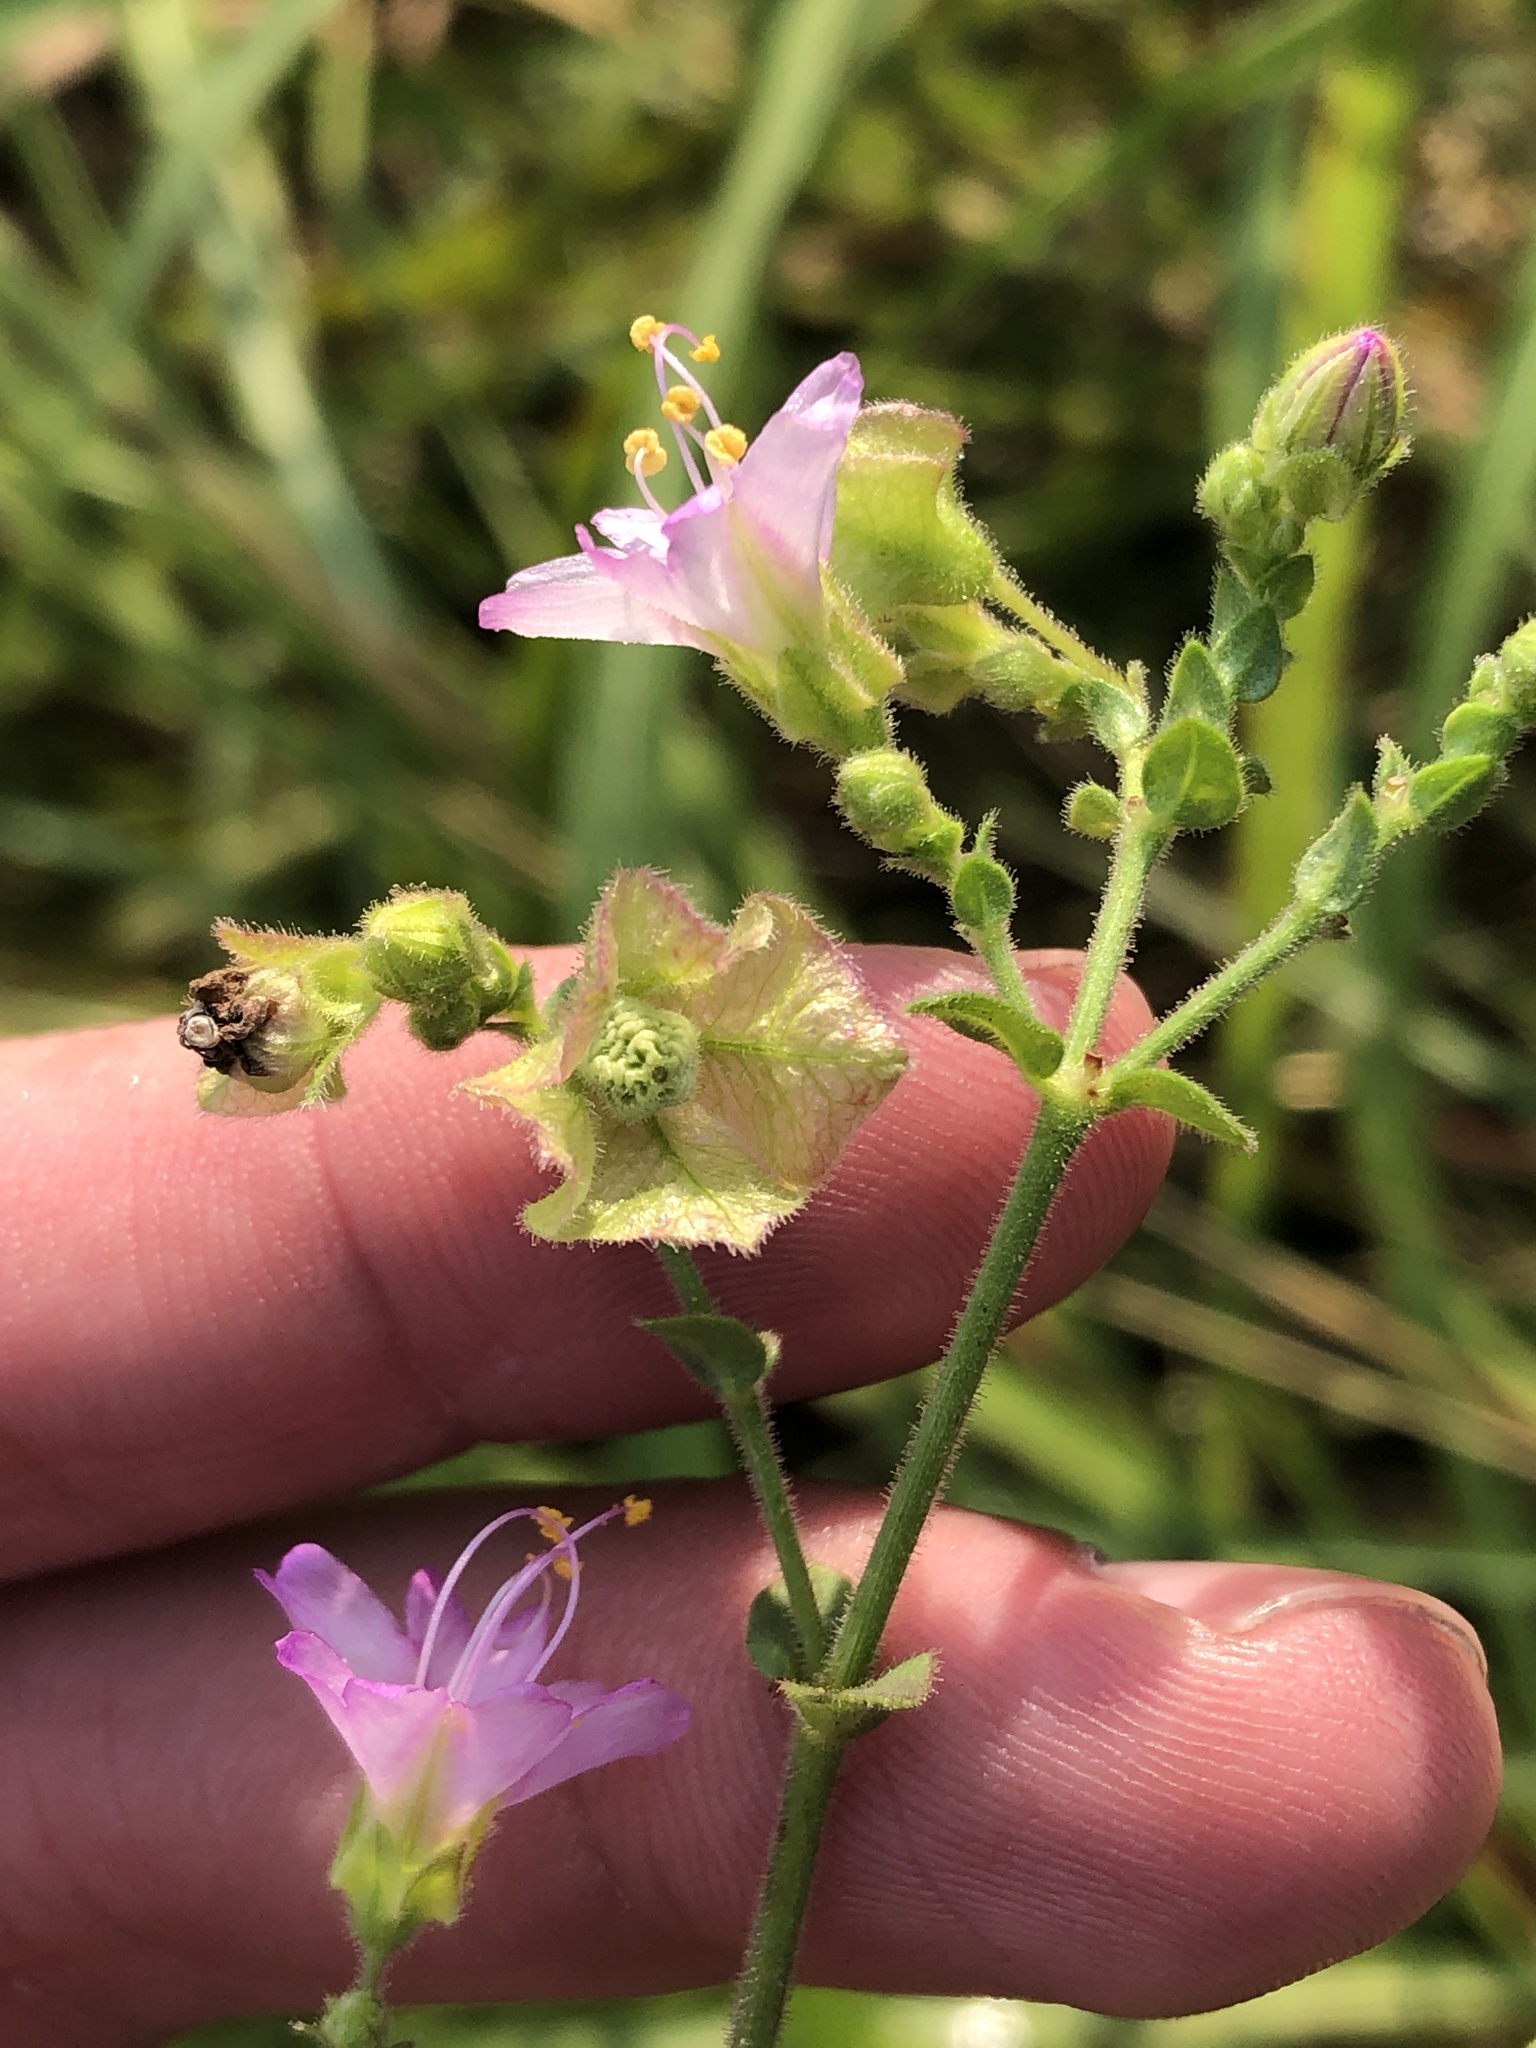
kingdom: Plantae
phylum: Tracheophyta
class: Magnoliopsida
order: Caryophyllales
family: Nyctaginaceae
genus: Mirabilis
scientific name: Mirabilis albida
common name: Hairy four-o'clock
